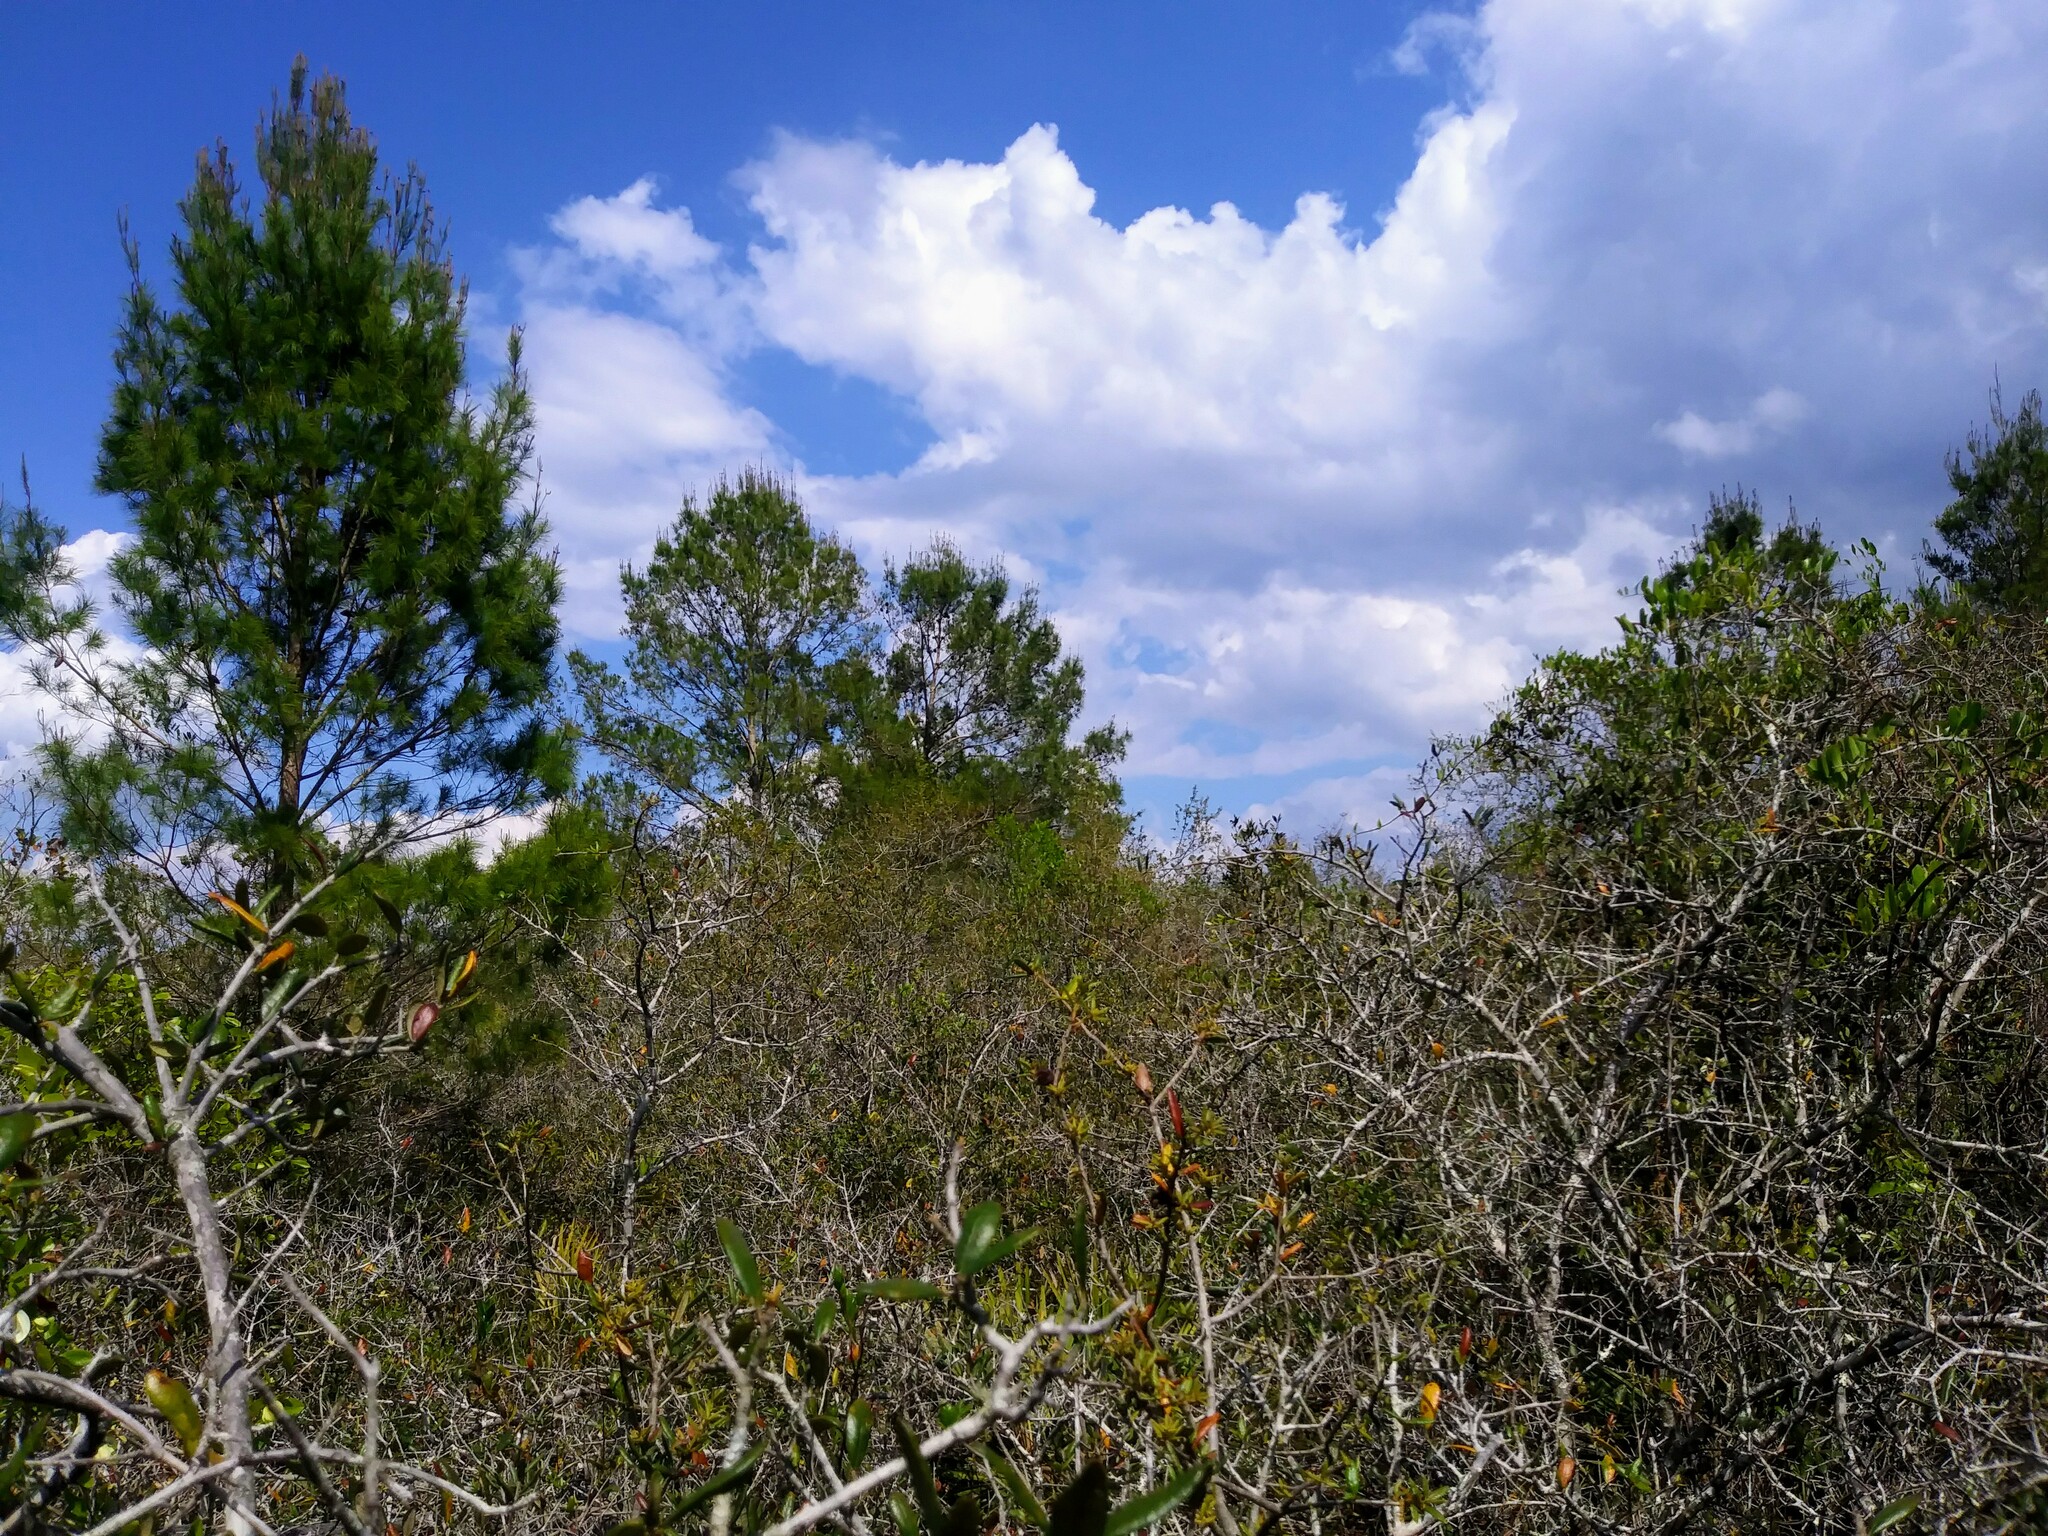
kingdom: Plantae
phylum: Tracheophyta
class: Pinopsida
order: Pinales
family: Pinaceae
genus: Pinus
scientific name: Pinus clausa
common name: Sand pine
